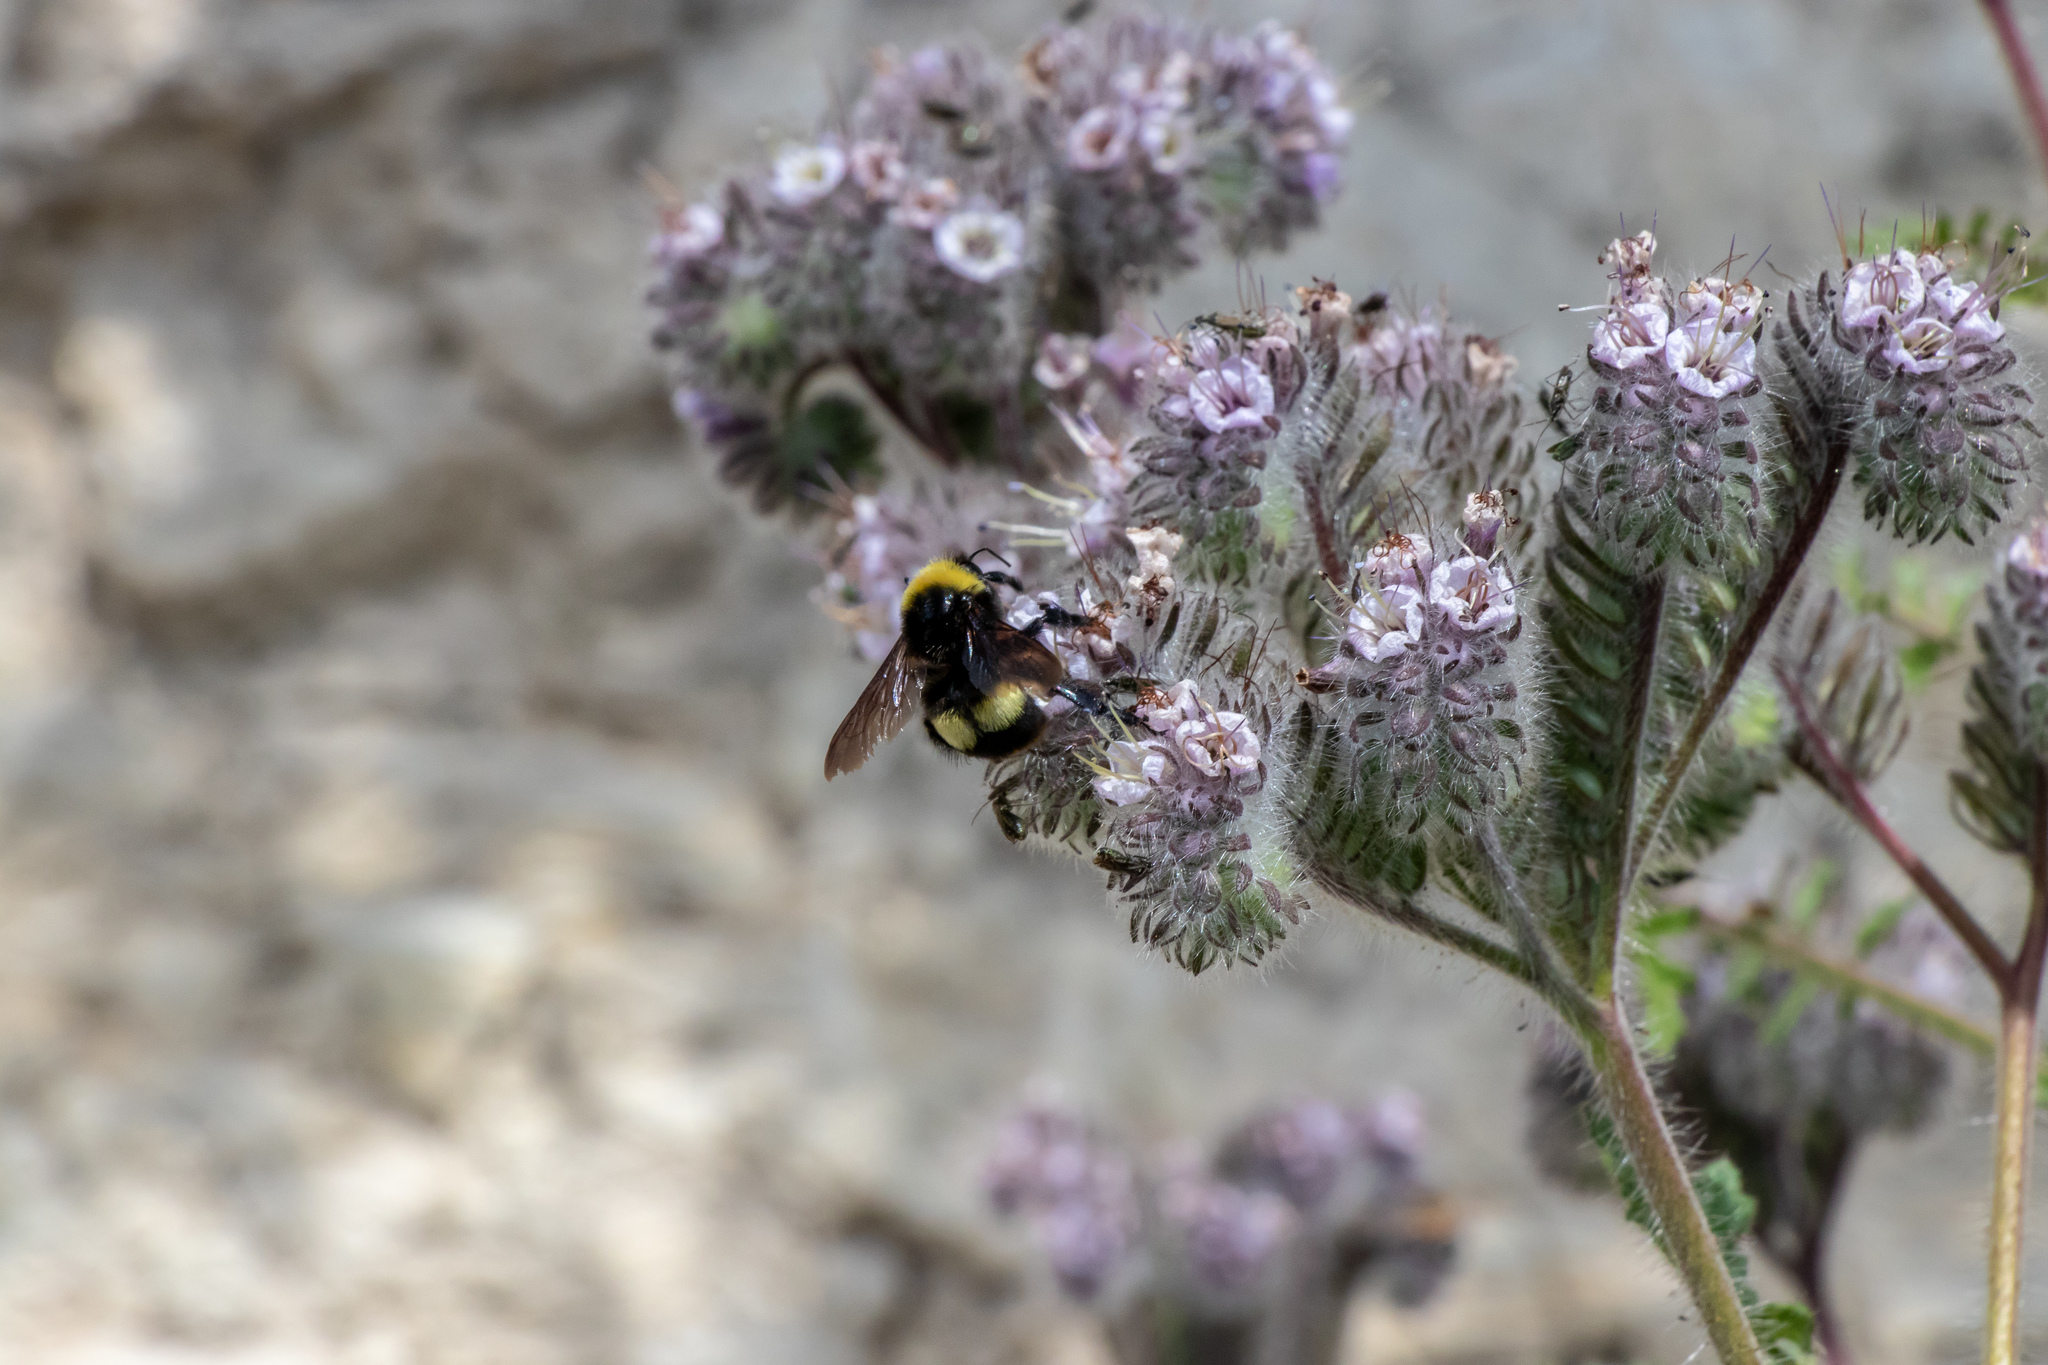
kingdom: Animalia
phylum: Arthropoda
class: Insecta
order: Hymenoptera
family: Apidae
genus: Bombus
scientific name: Bombus crotchii
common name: Crotch bumble bee
